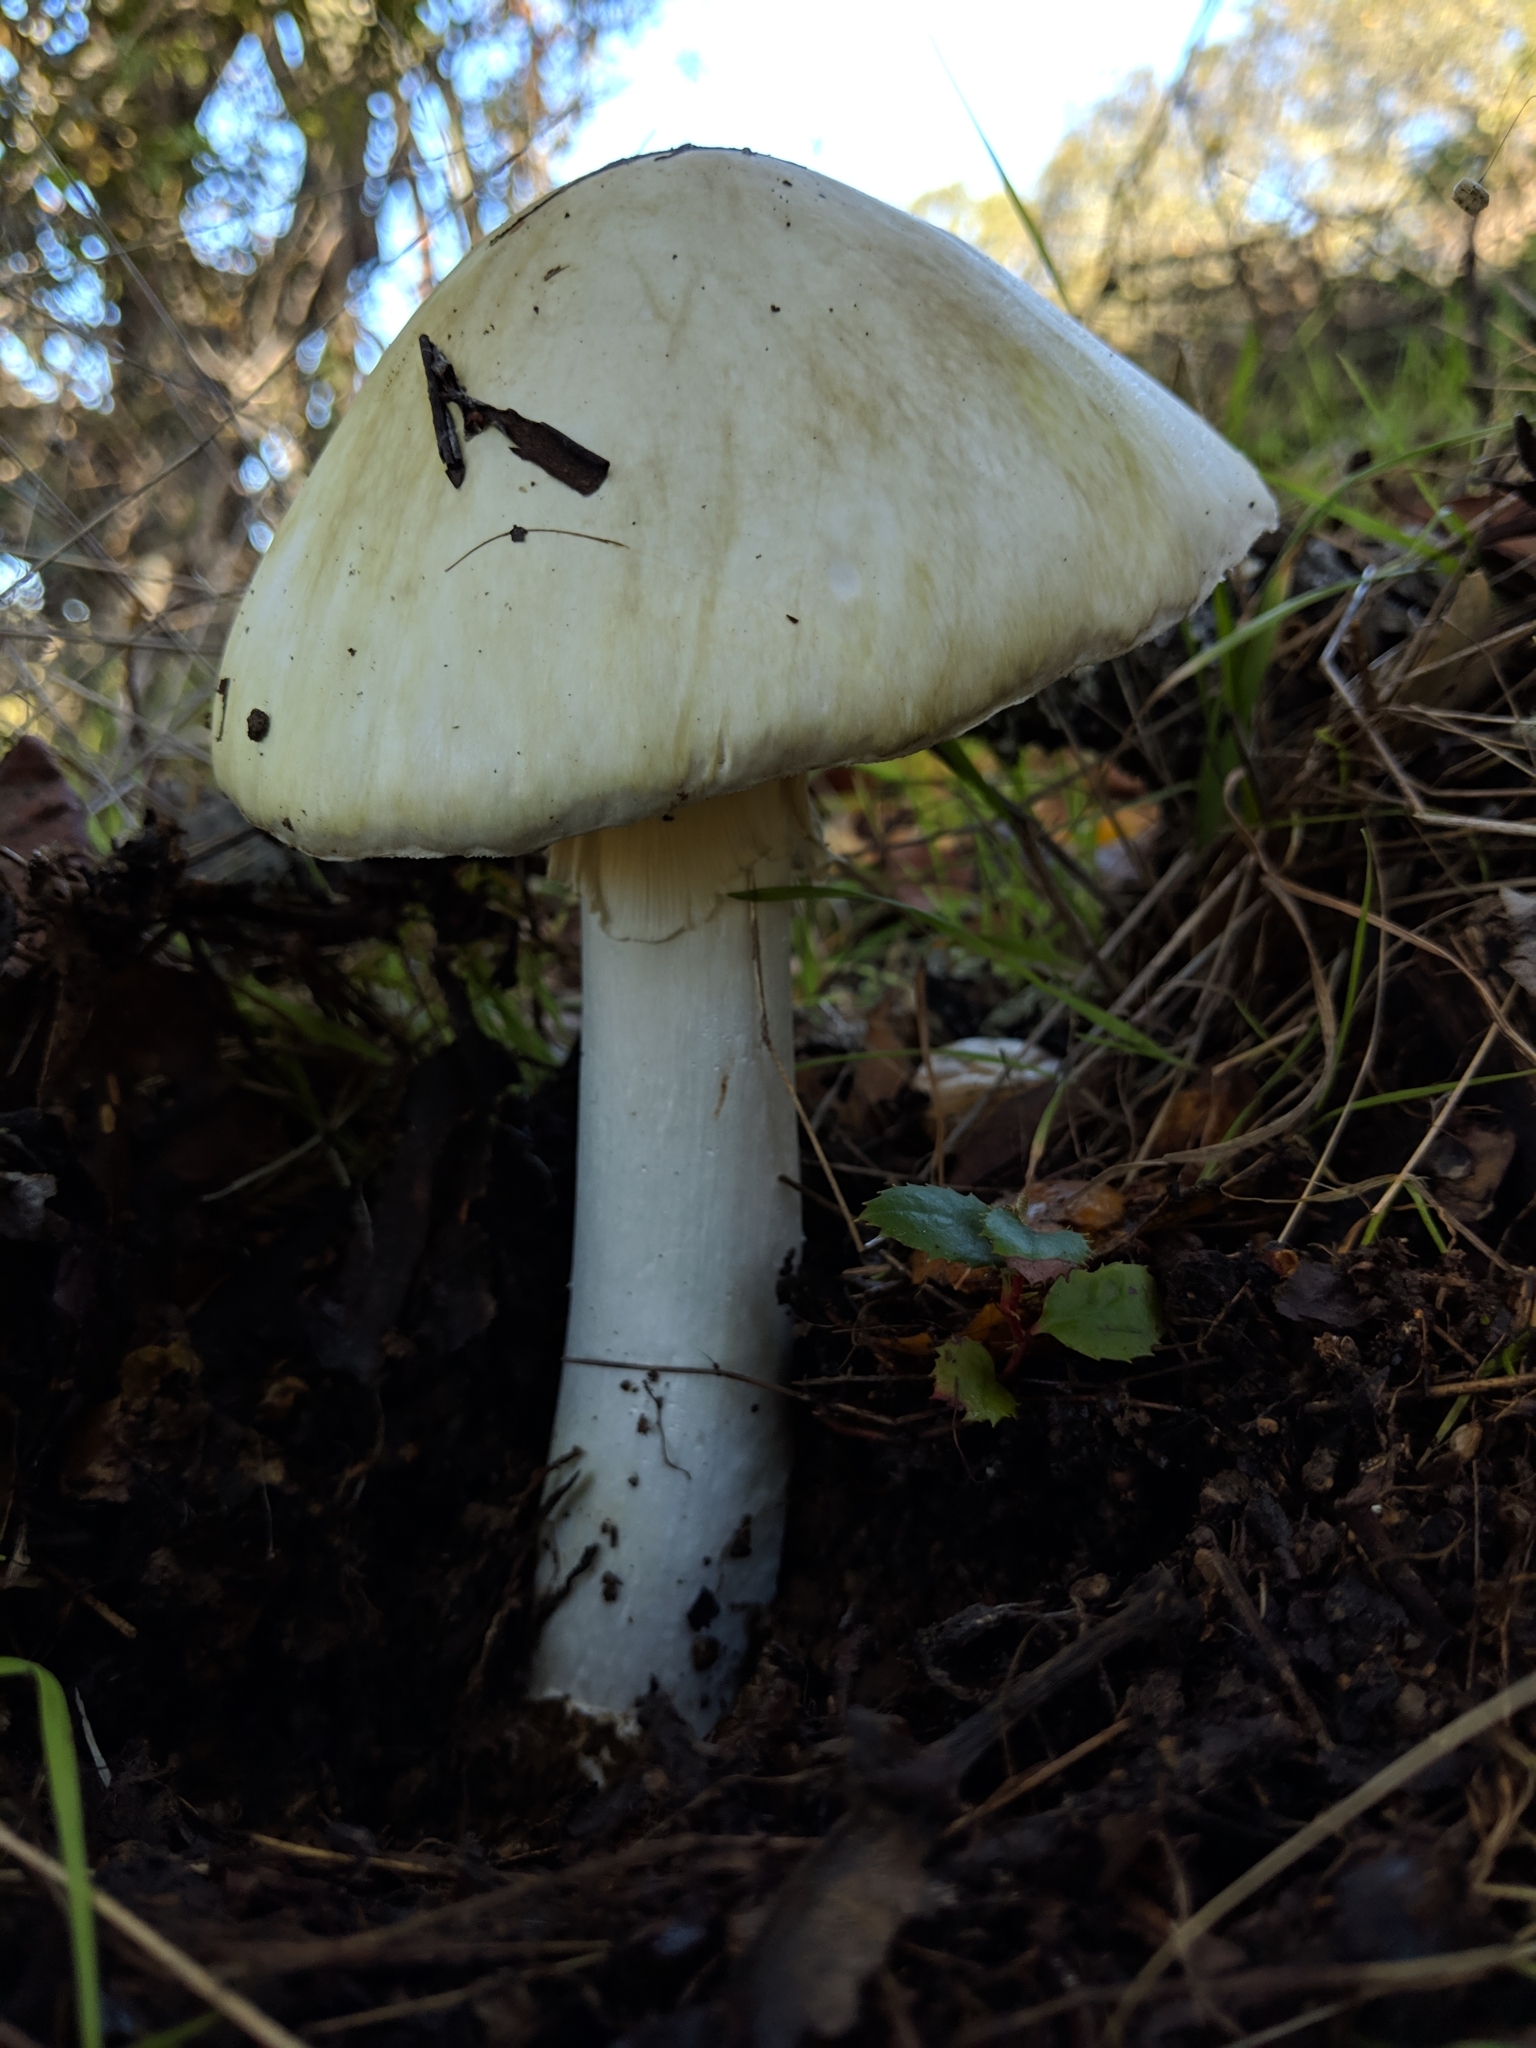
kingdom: Fungi
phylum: Basidiomycota
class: Agaricomycetes
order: Agaricales
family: Amanitaceae
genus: Amanita
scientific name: Amanita phalloides
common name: Death cap
